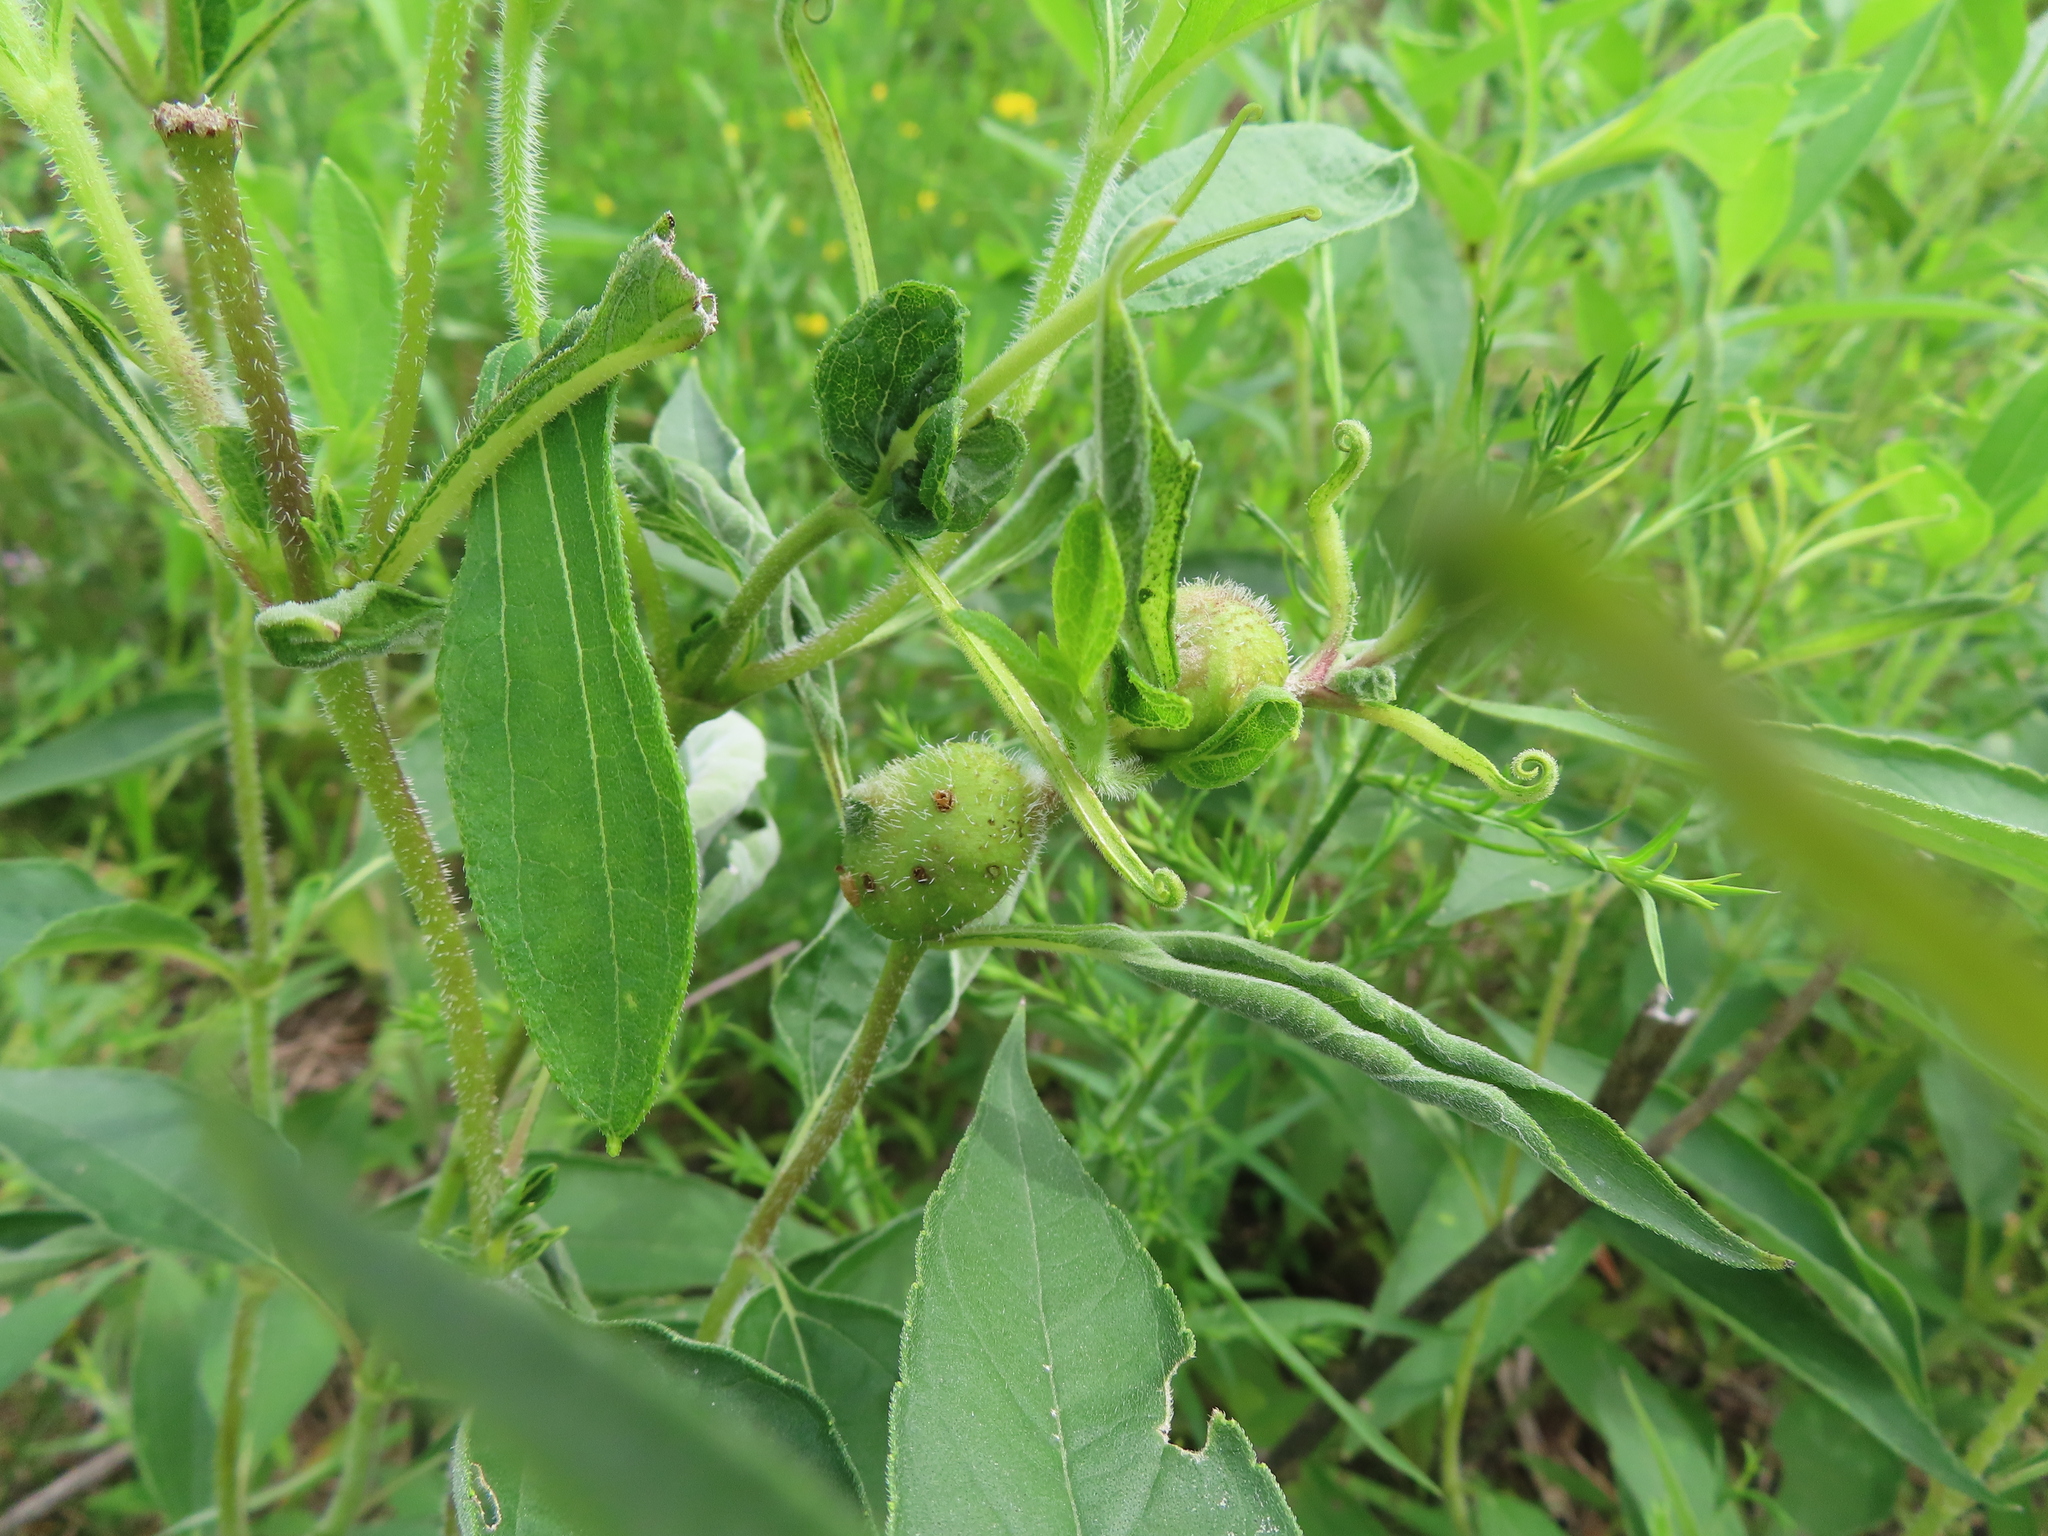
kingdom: Animalia
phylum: Arthropoda
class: Insecta
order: Diptera
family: Cecidomyiidae
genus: Asphondylia
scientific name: Asphondylia helianthiglobulus
